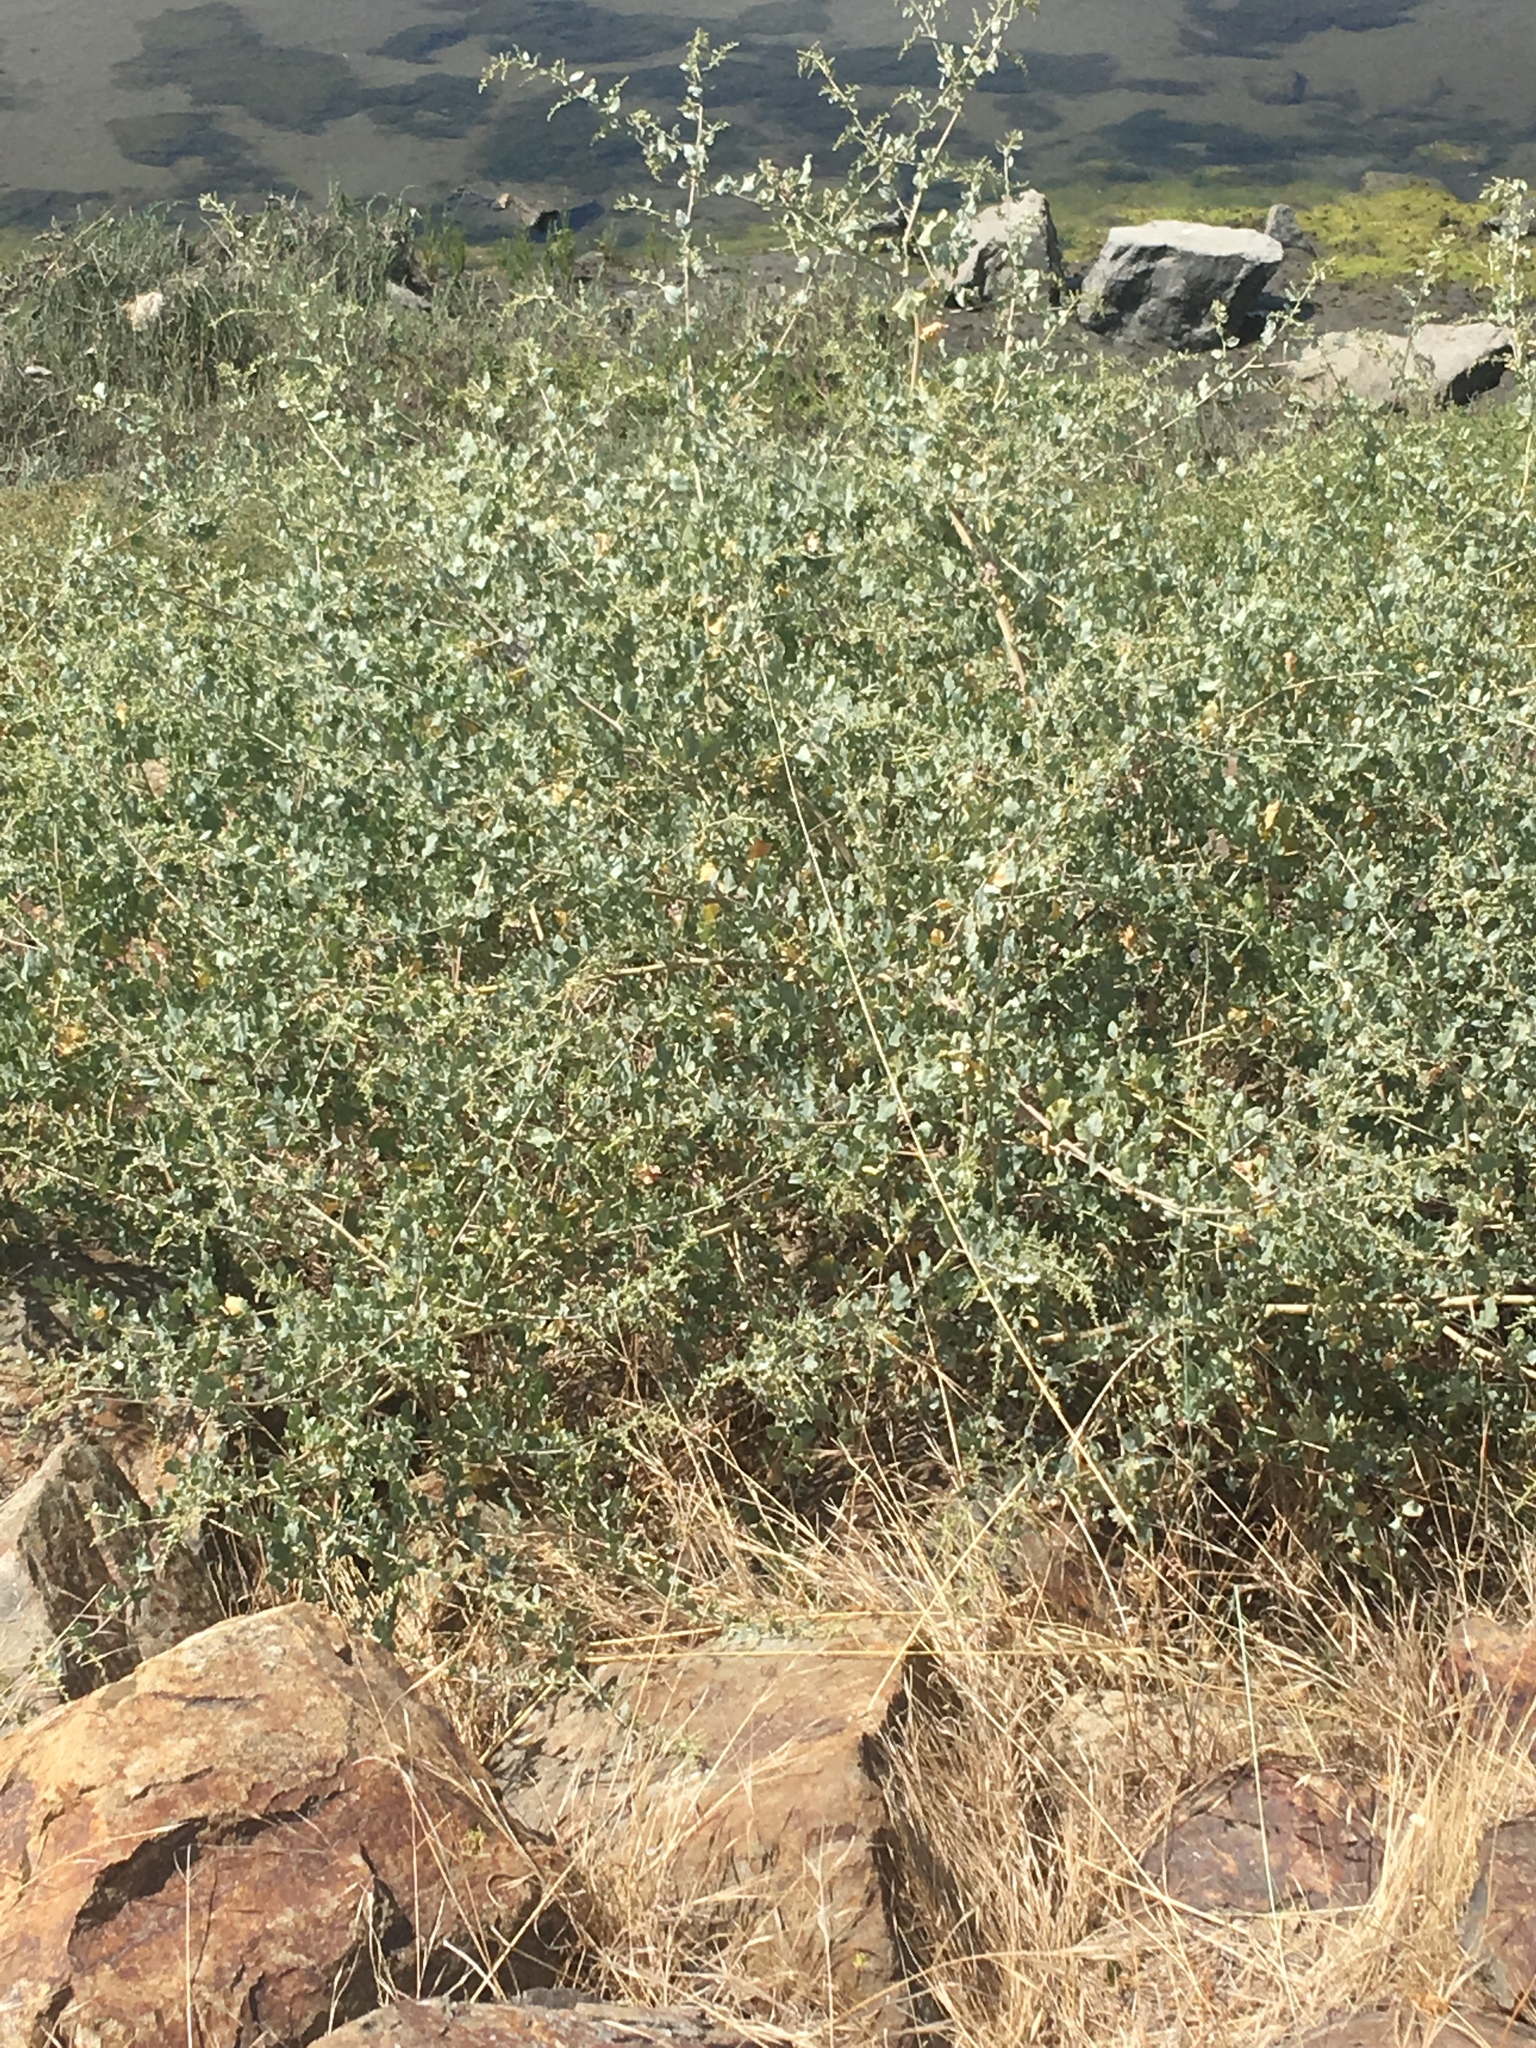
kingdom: Plantae
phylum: Tracheophyta
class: Magnoliopsida
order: Caryophyllales
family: Amaranthaceae
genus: Atriplex
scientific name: Atriplex lentiformis
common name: Big saltbush
